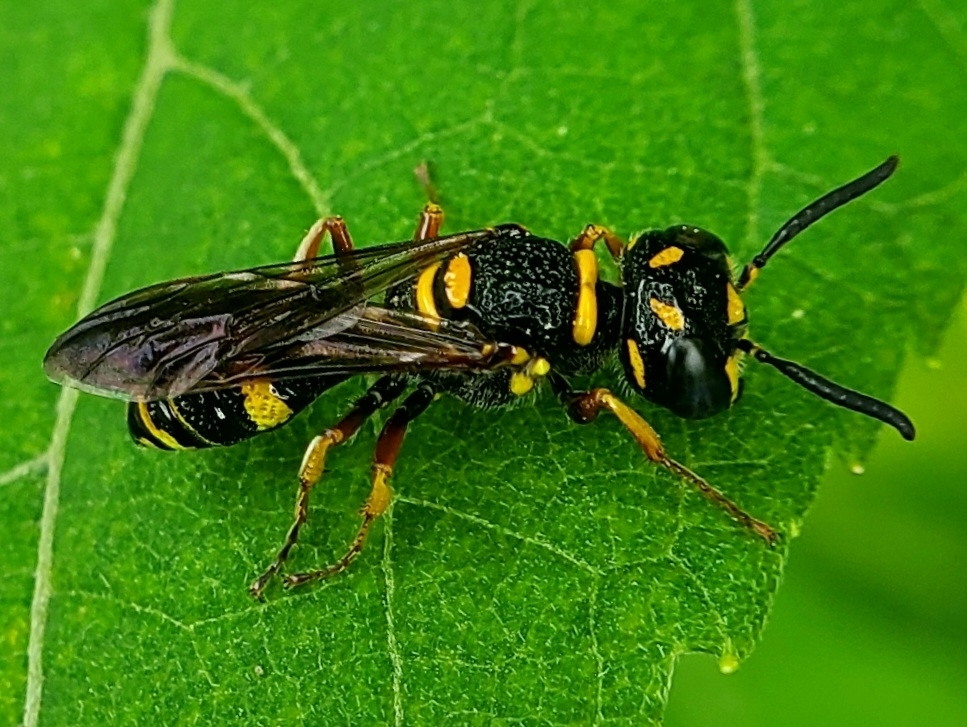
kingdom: Animalia
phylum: Arthropoda
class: Insecta
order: Hymenoptera
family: Crabronidae
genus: Philanthus
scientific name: Philanthus gibbosus
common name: Humped beewolf
